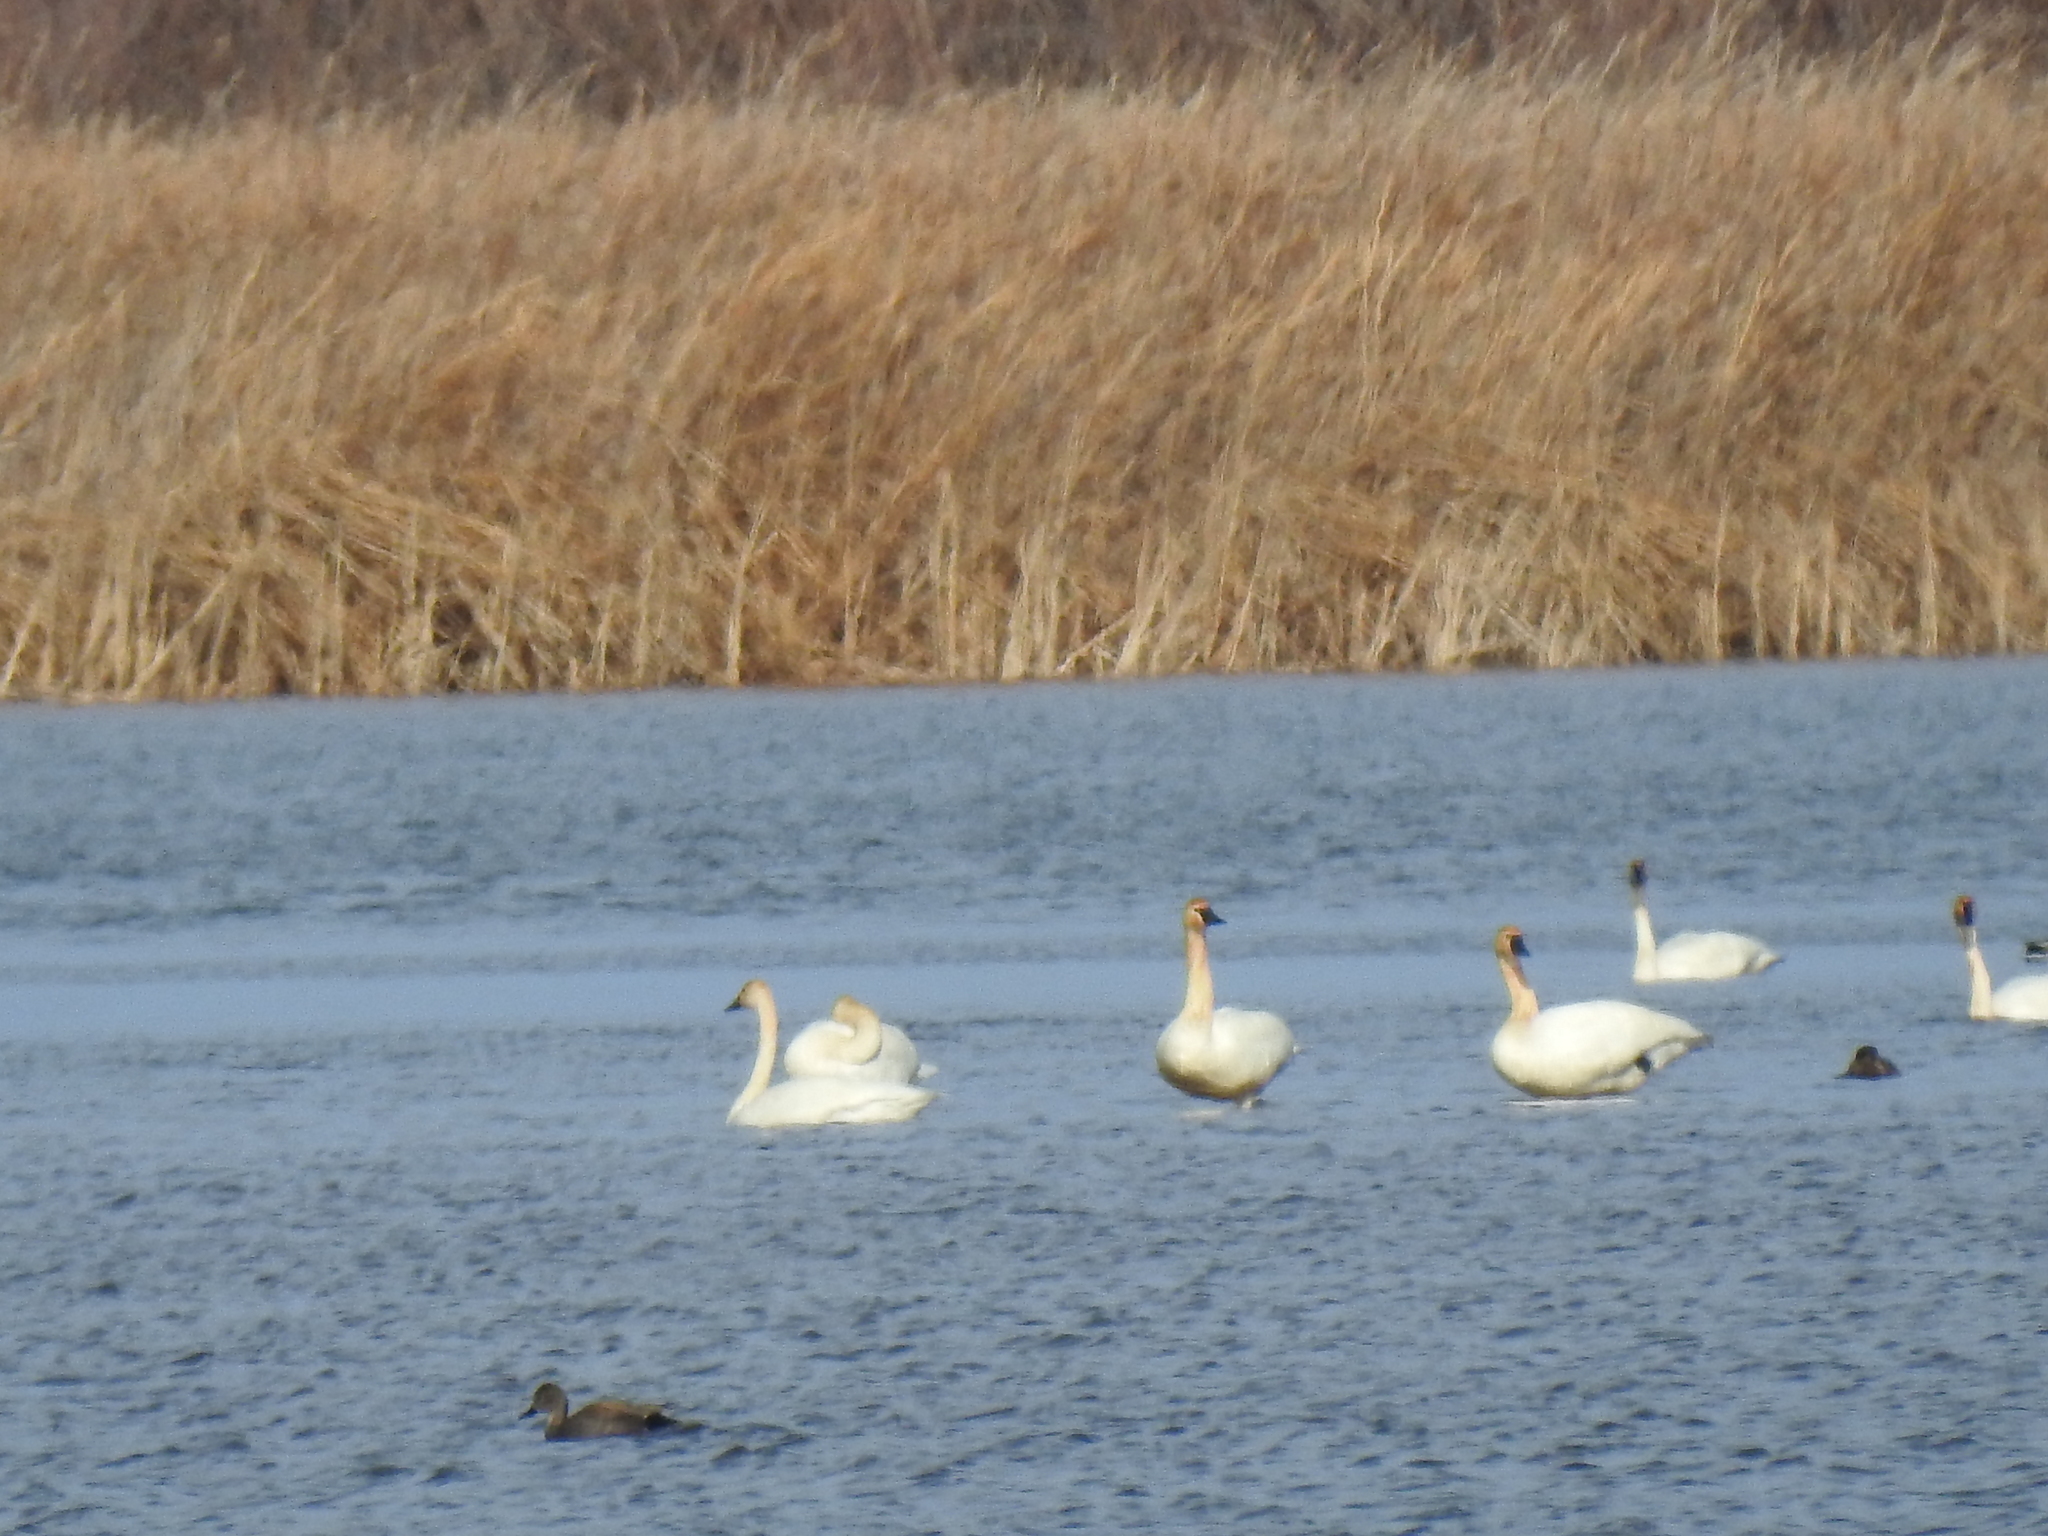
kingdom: Animalia
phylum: Chordata
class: Aves
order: Anseriformes
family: Anatidae
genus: Cygnus
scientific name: Cygnus columbianus
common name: Tundra swan
